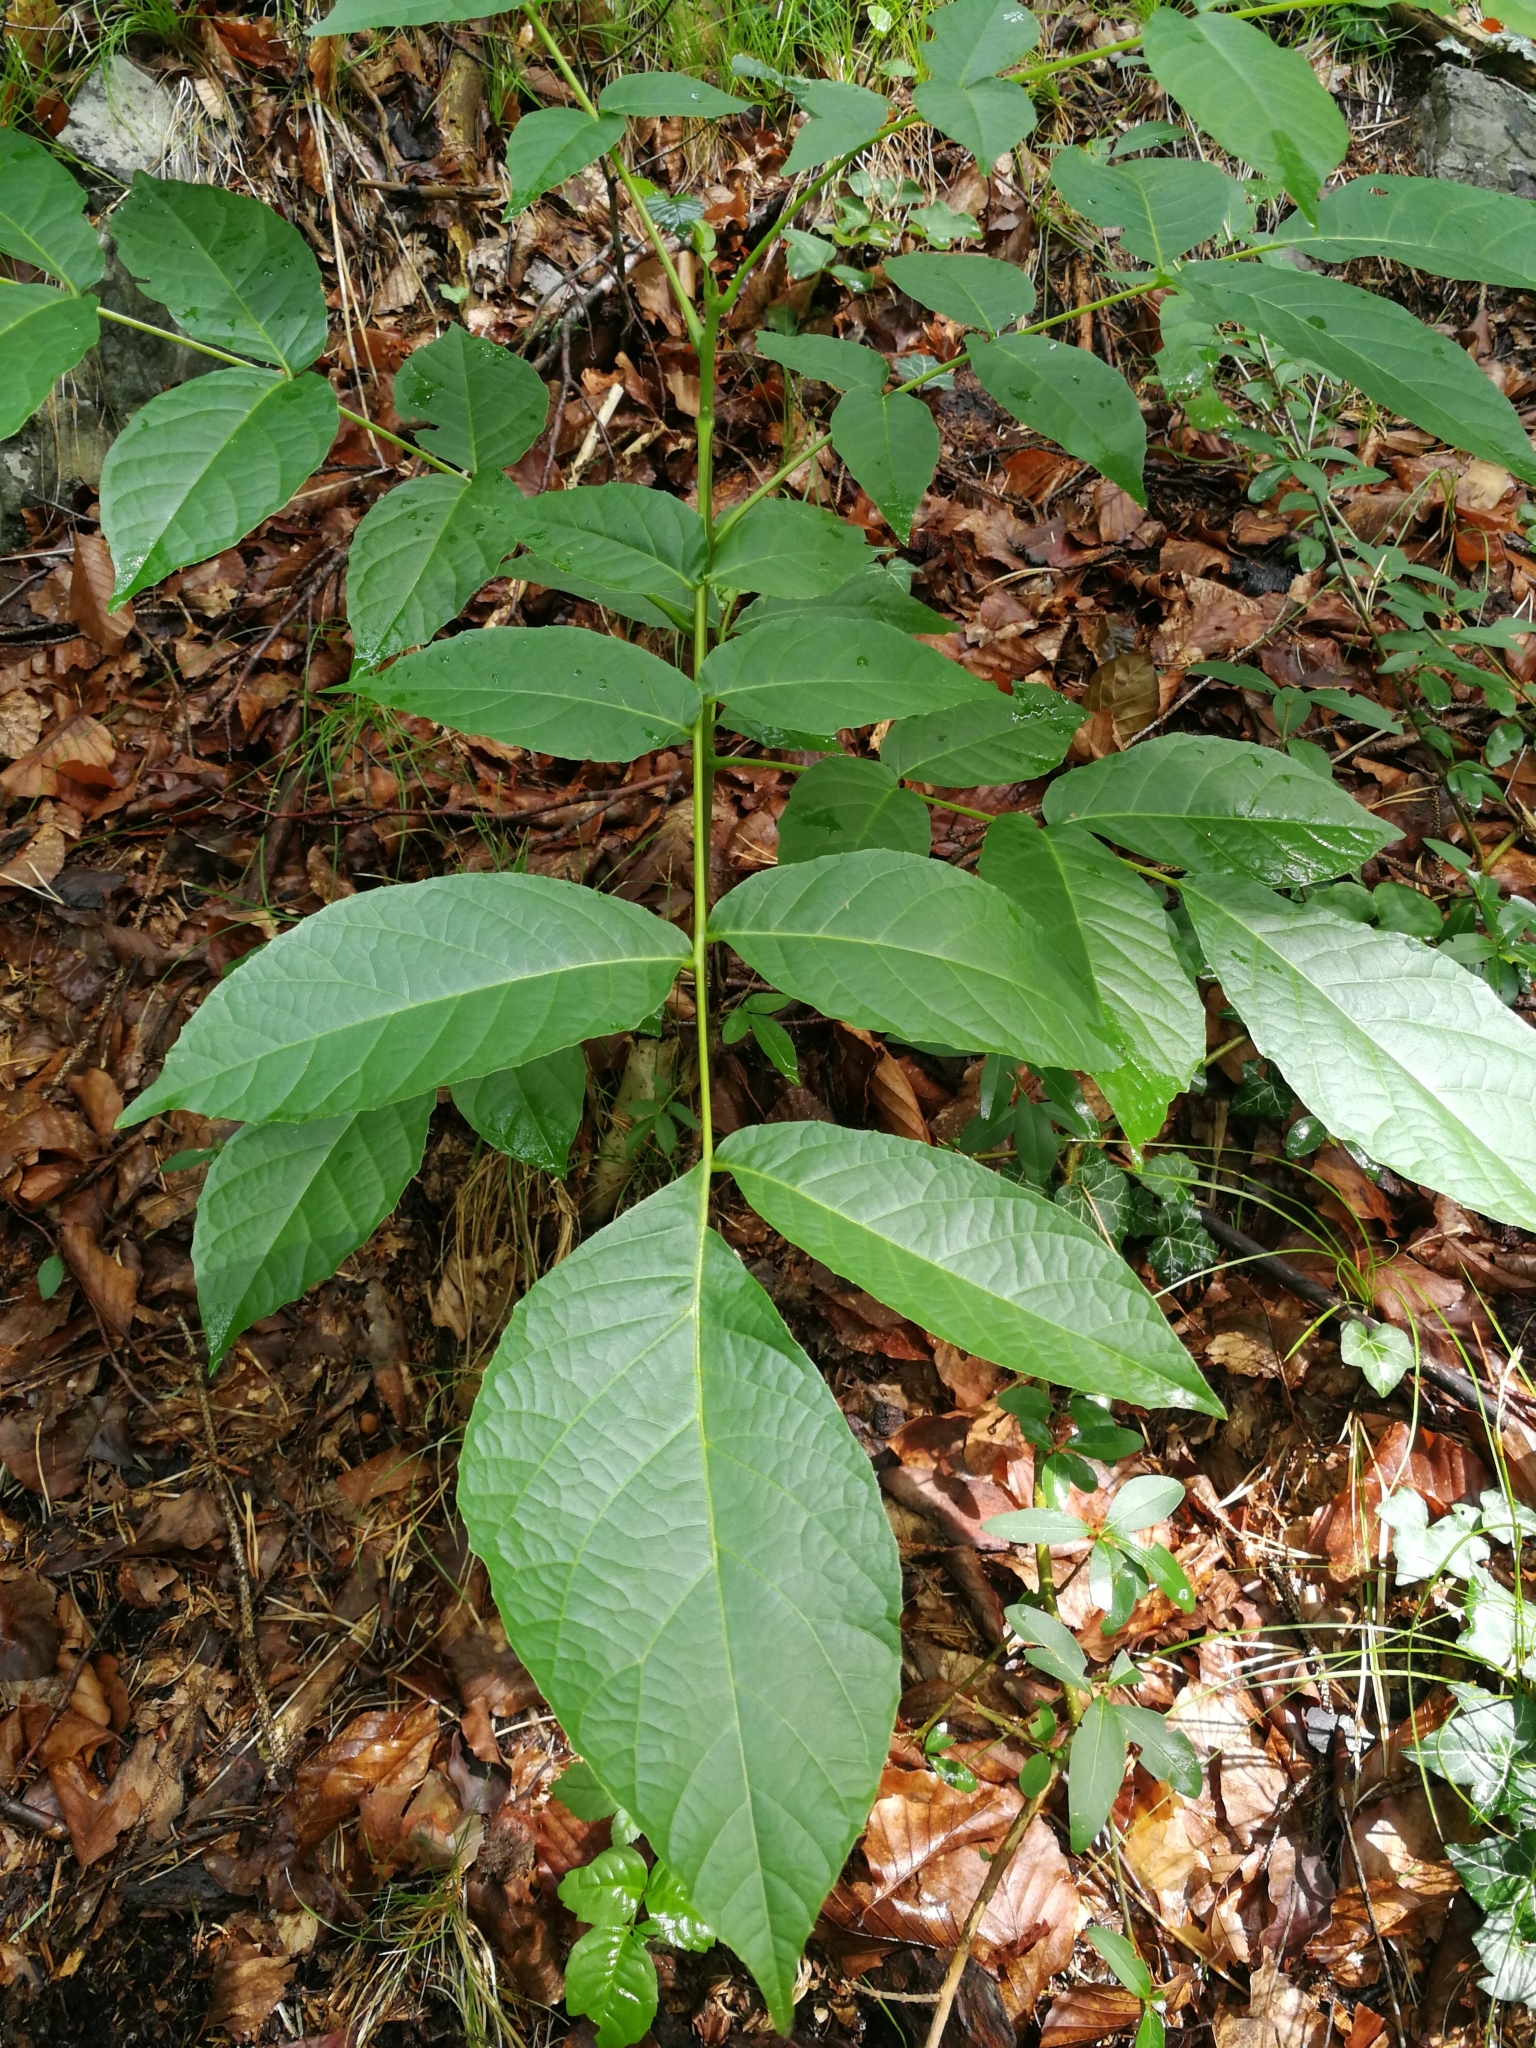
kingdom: Plantae
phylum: Tracheophyta
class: Magnoliopsida
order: Fagales
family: Juglandaceae
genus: Juglans
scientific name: Juglans regia
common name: Walnut
